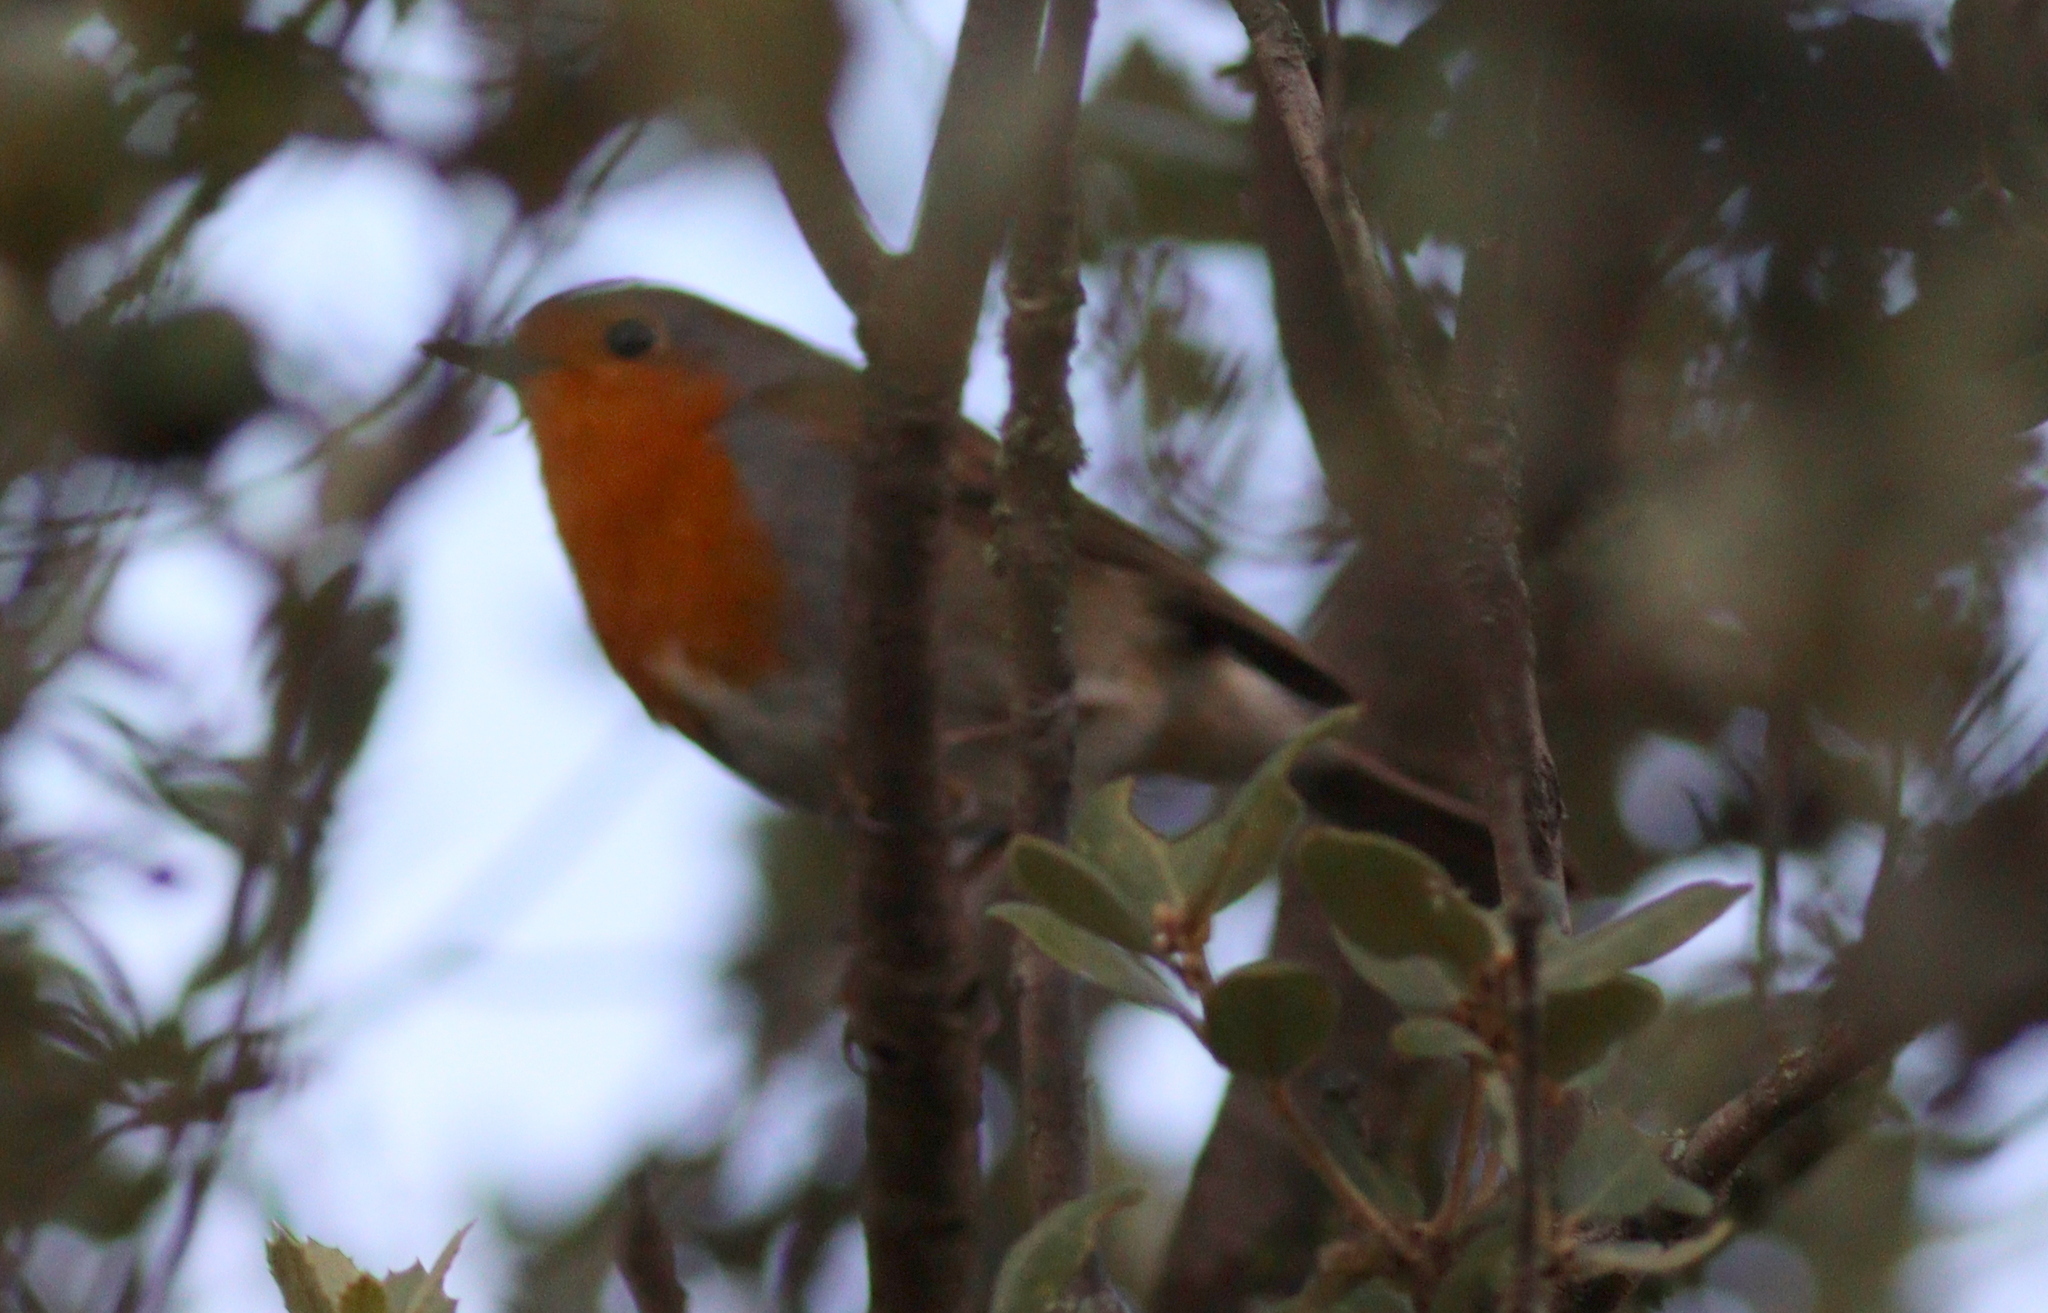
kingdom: Animalia
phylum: Chordata
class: Aves
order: Passeriformes
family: Muscicapidae
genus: Erithacus
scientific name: Erithacus rubecula
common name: European robin
